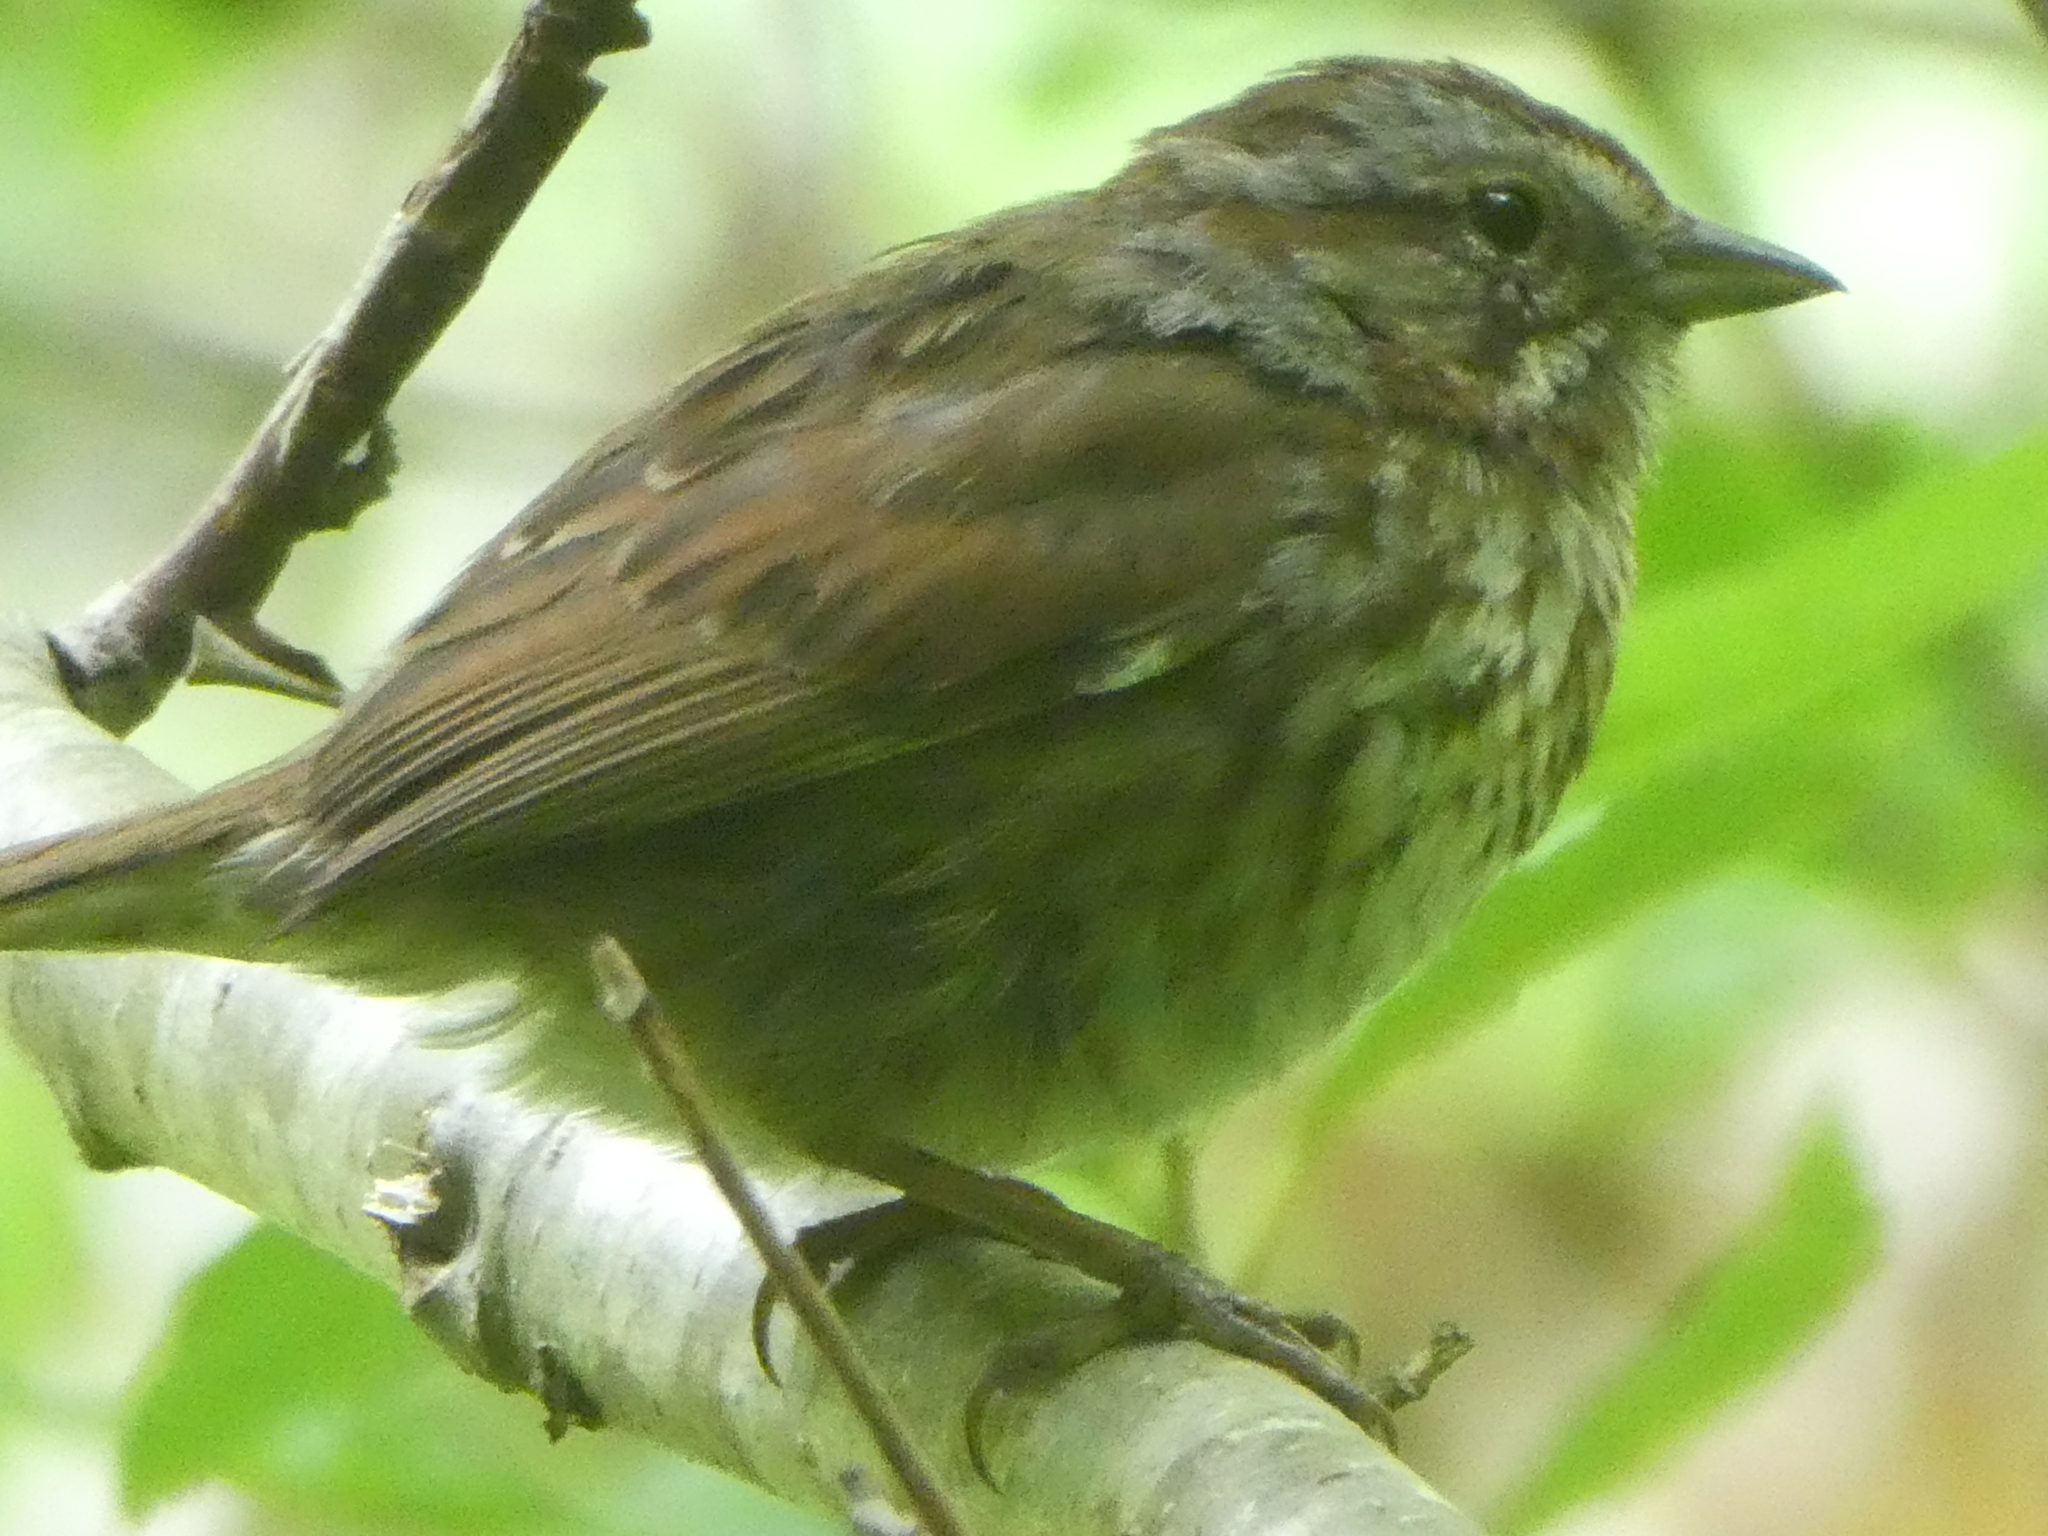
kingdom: Animalia
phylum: Chordata
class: Aves
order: Passeriformes
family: Passerellidae
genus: Melospiza
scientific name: Melospiza melodia
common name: Song sparrow
